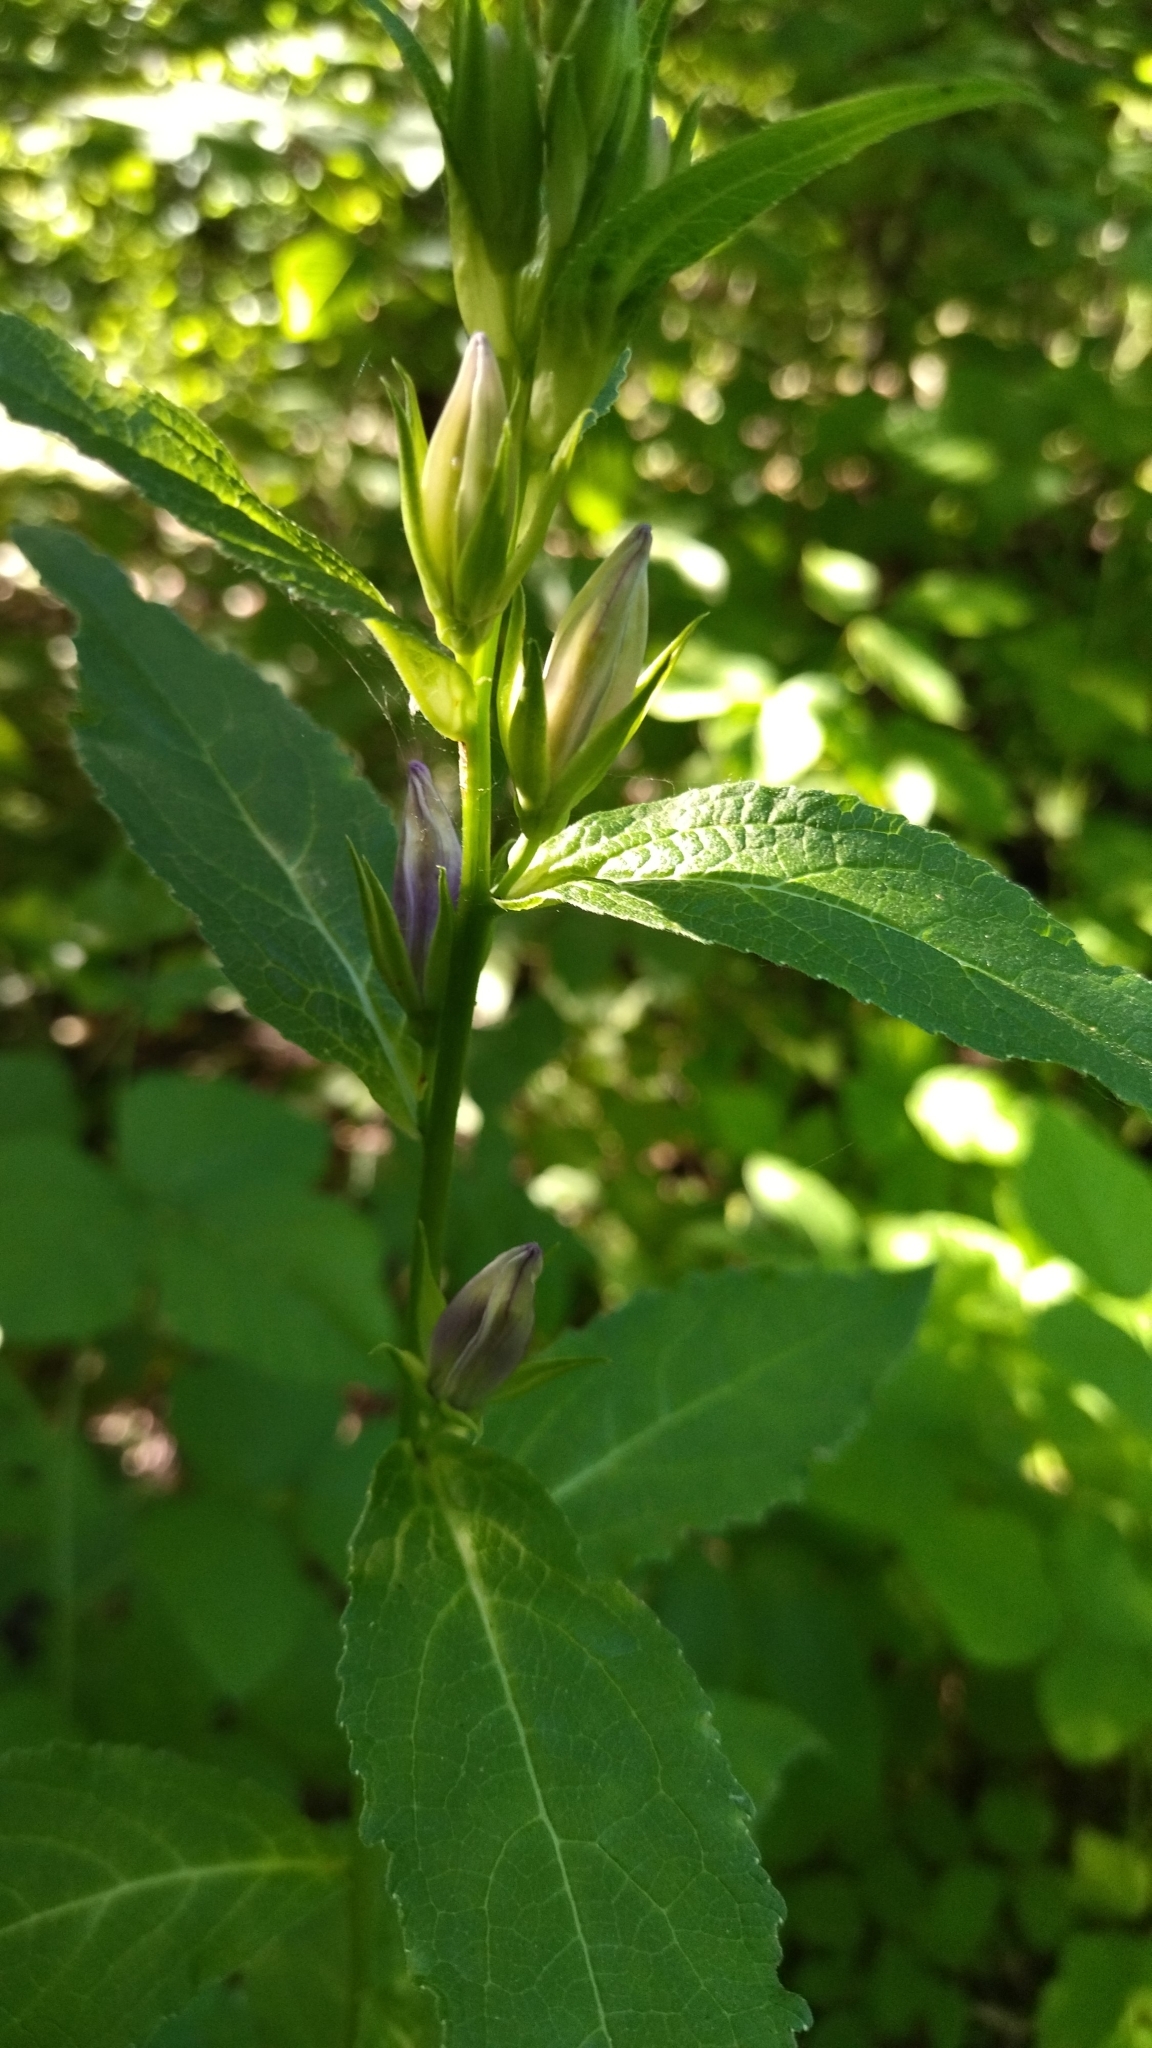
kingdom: Plantae
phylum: Tracheophyta
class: Magnoliopsida
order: Asterales
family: Campanulaceae
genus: Campanula
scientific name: Campanula latifolia
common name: Giant bellflower
